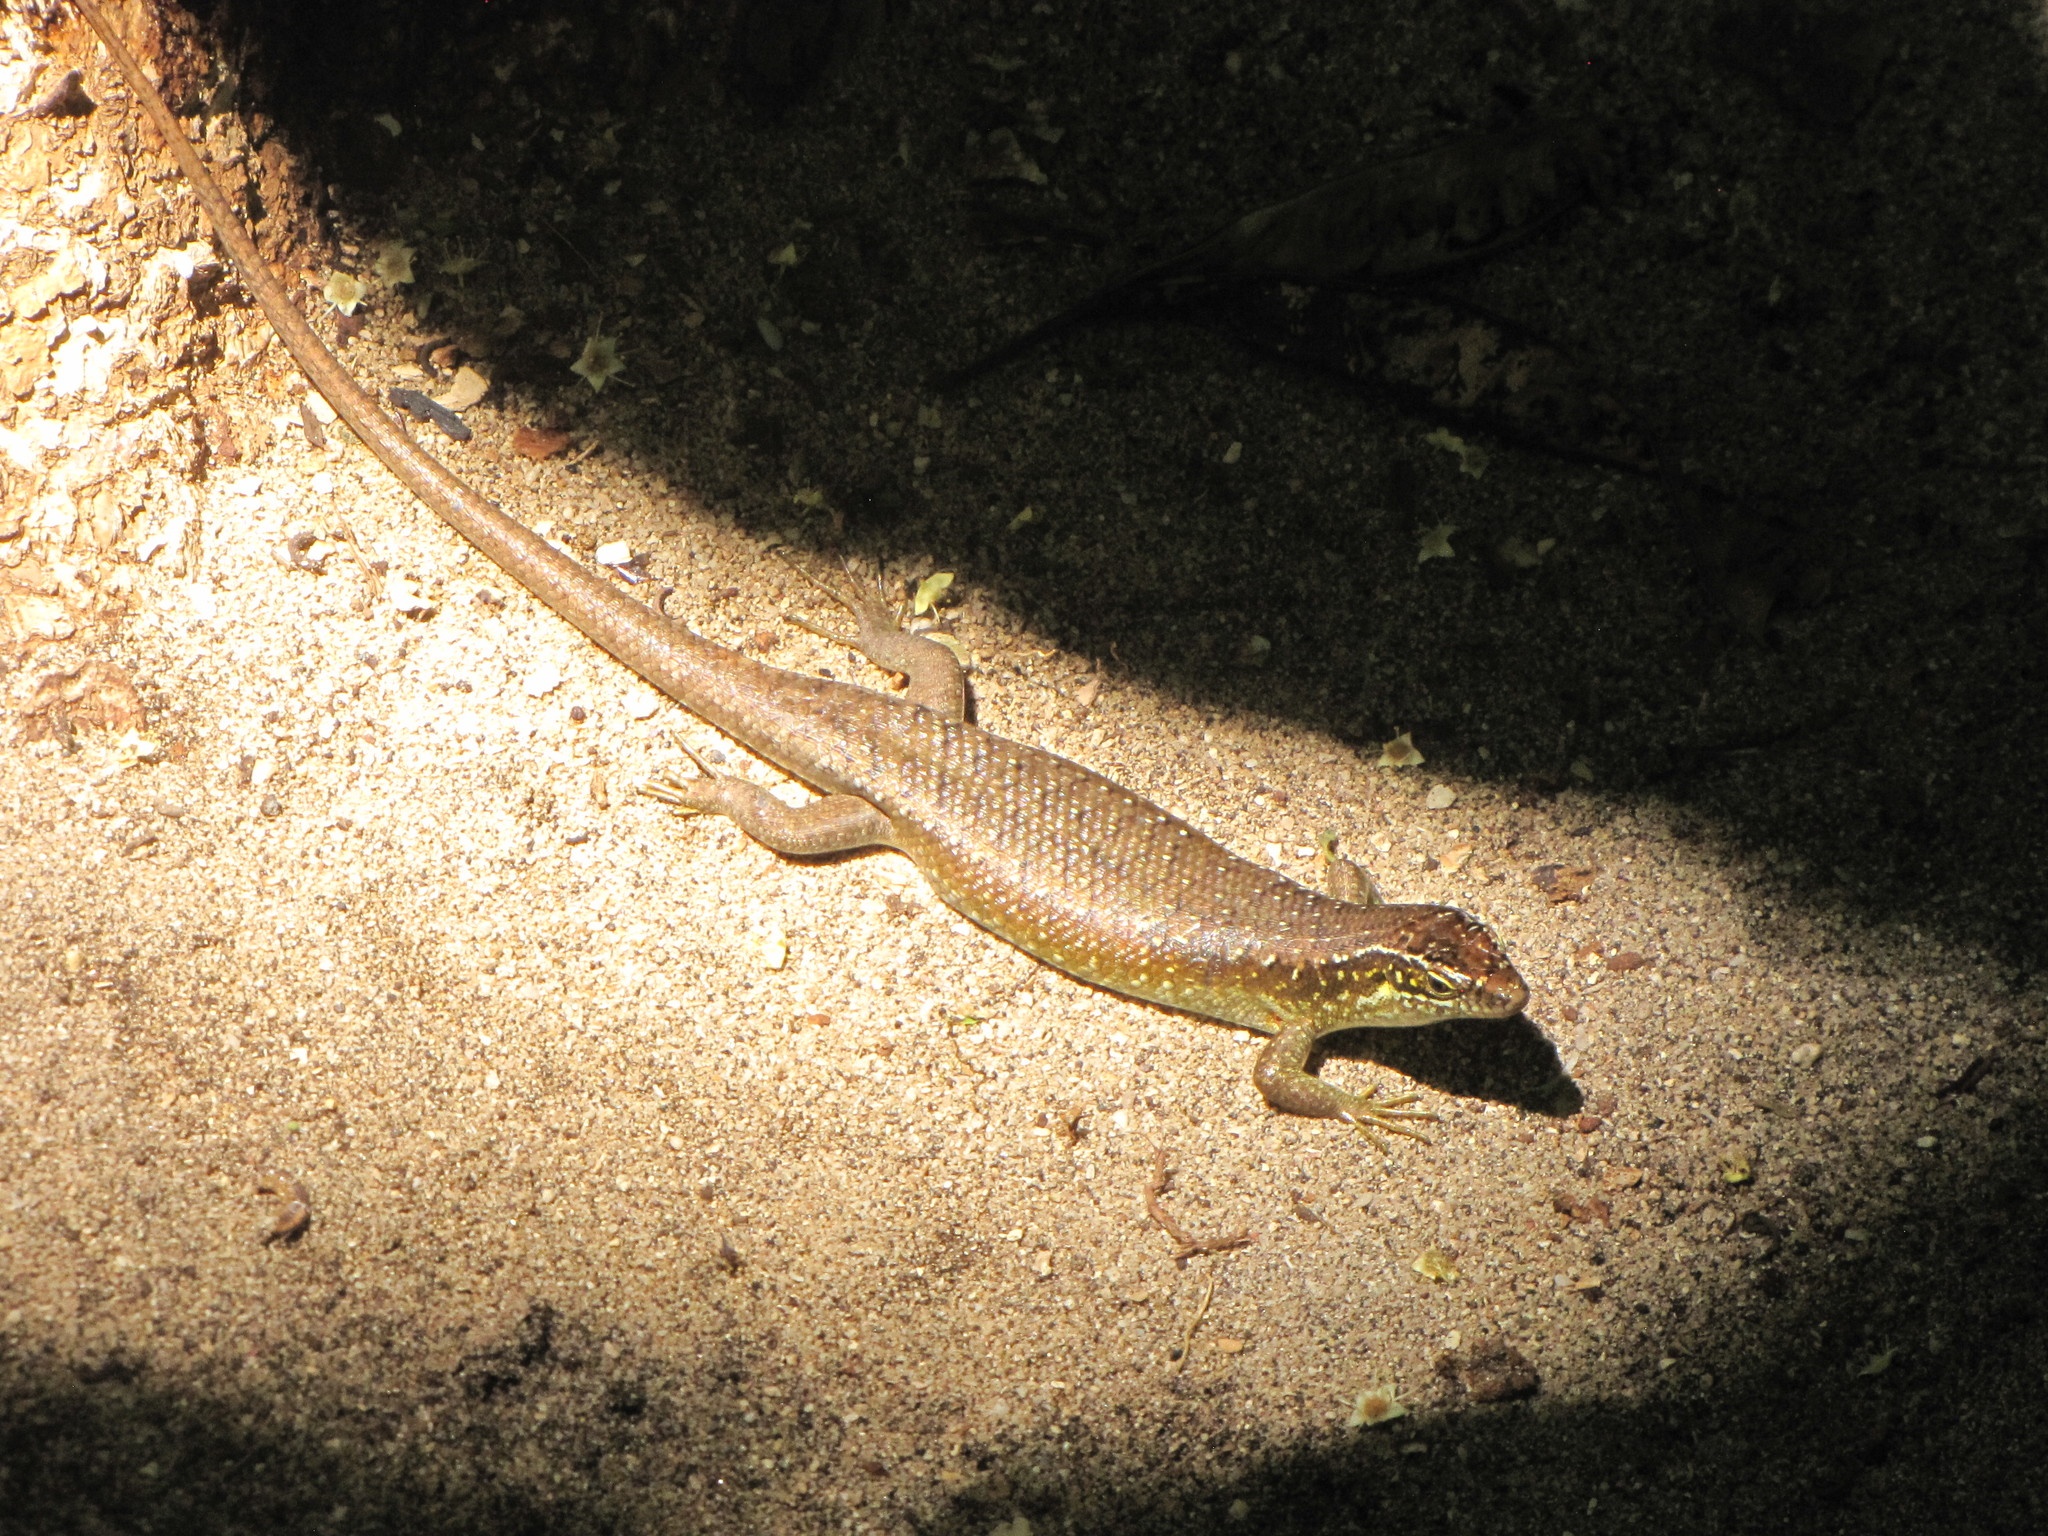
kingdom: Animalia
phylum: Chordata
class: Squamata
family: Scincidae
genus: Trachylepis
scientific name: Trachylepis comorensis
